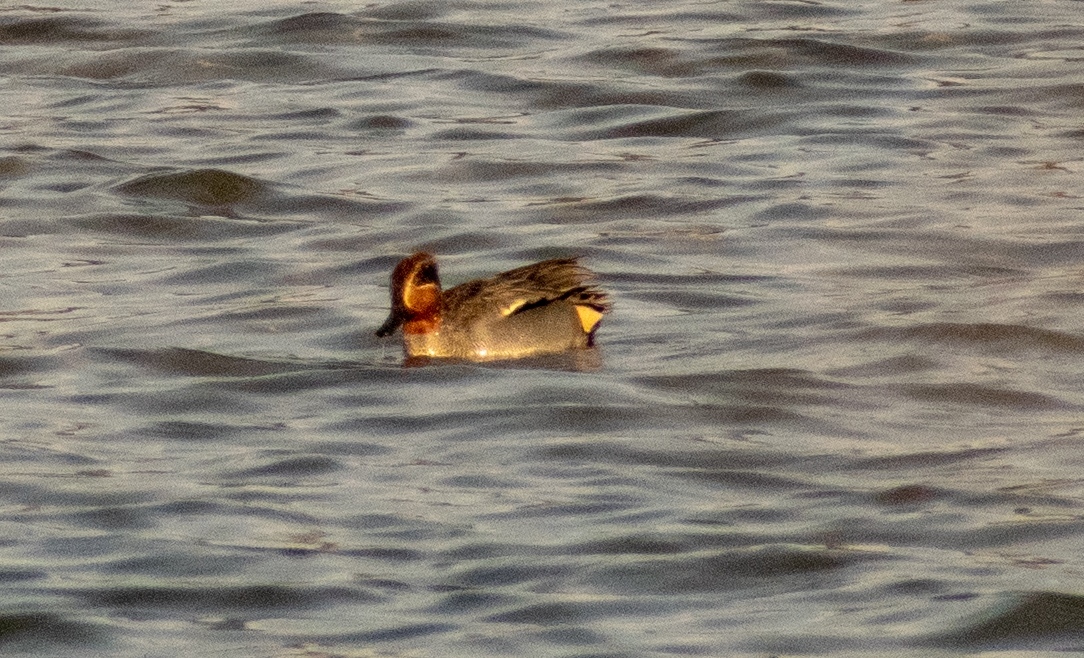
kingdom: Animalia
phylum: Chordata
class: Aves
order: Anseriformes
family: Anatidae
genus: Anas
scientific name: Anas crecca
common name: Eurasian teal
